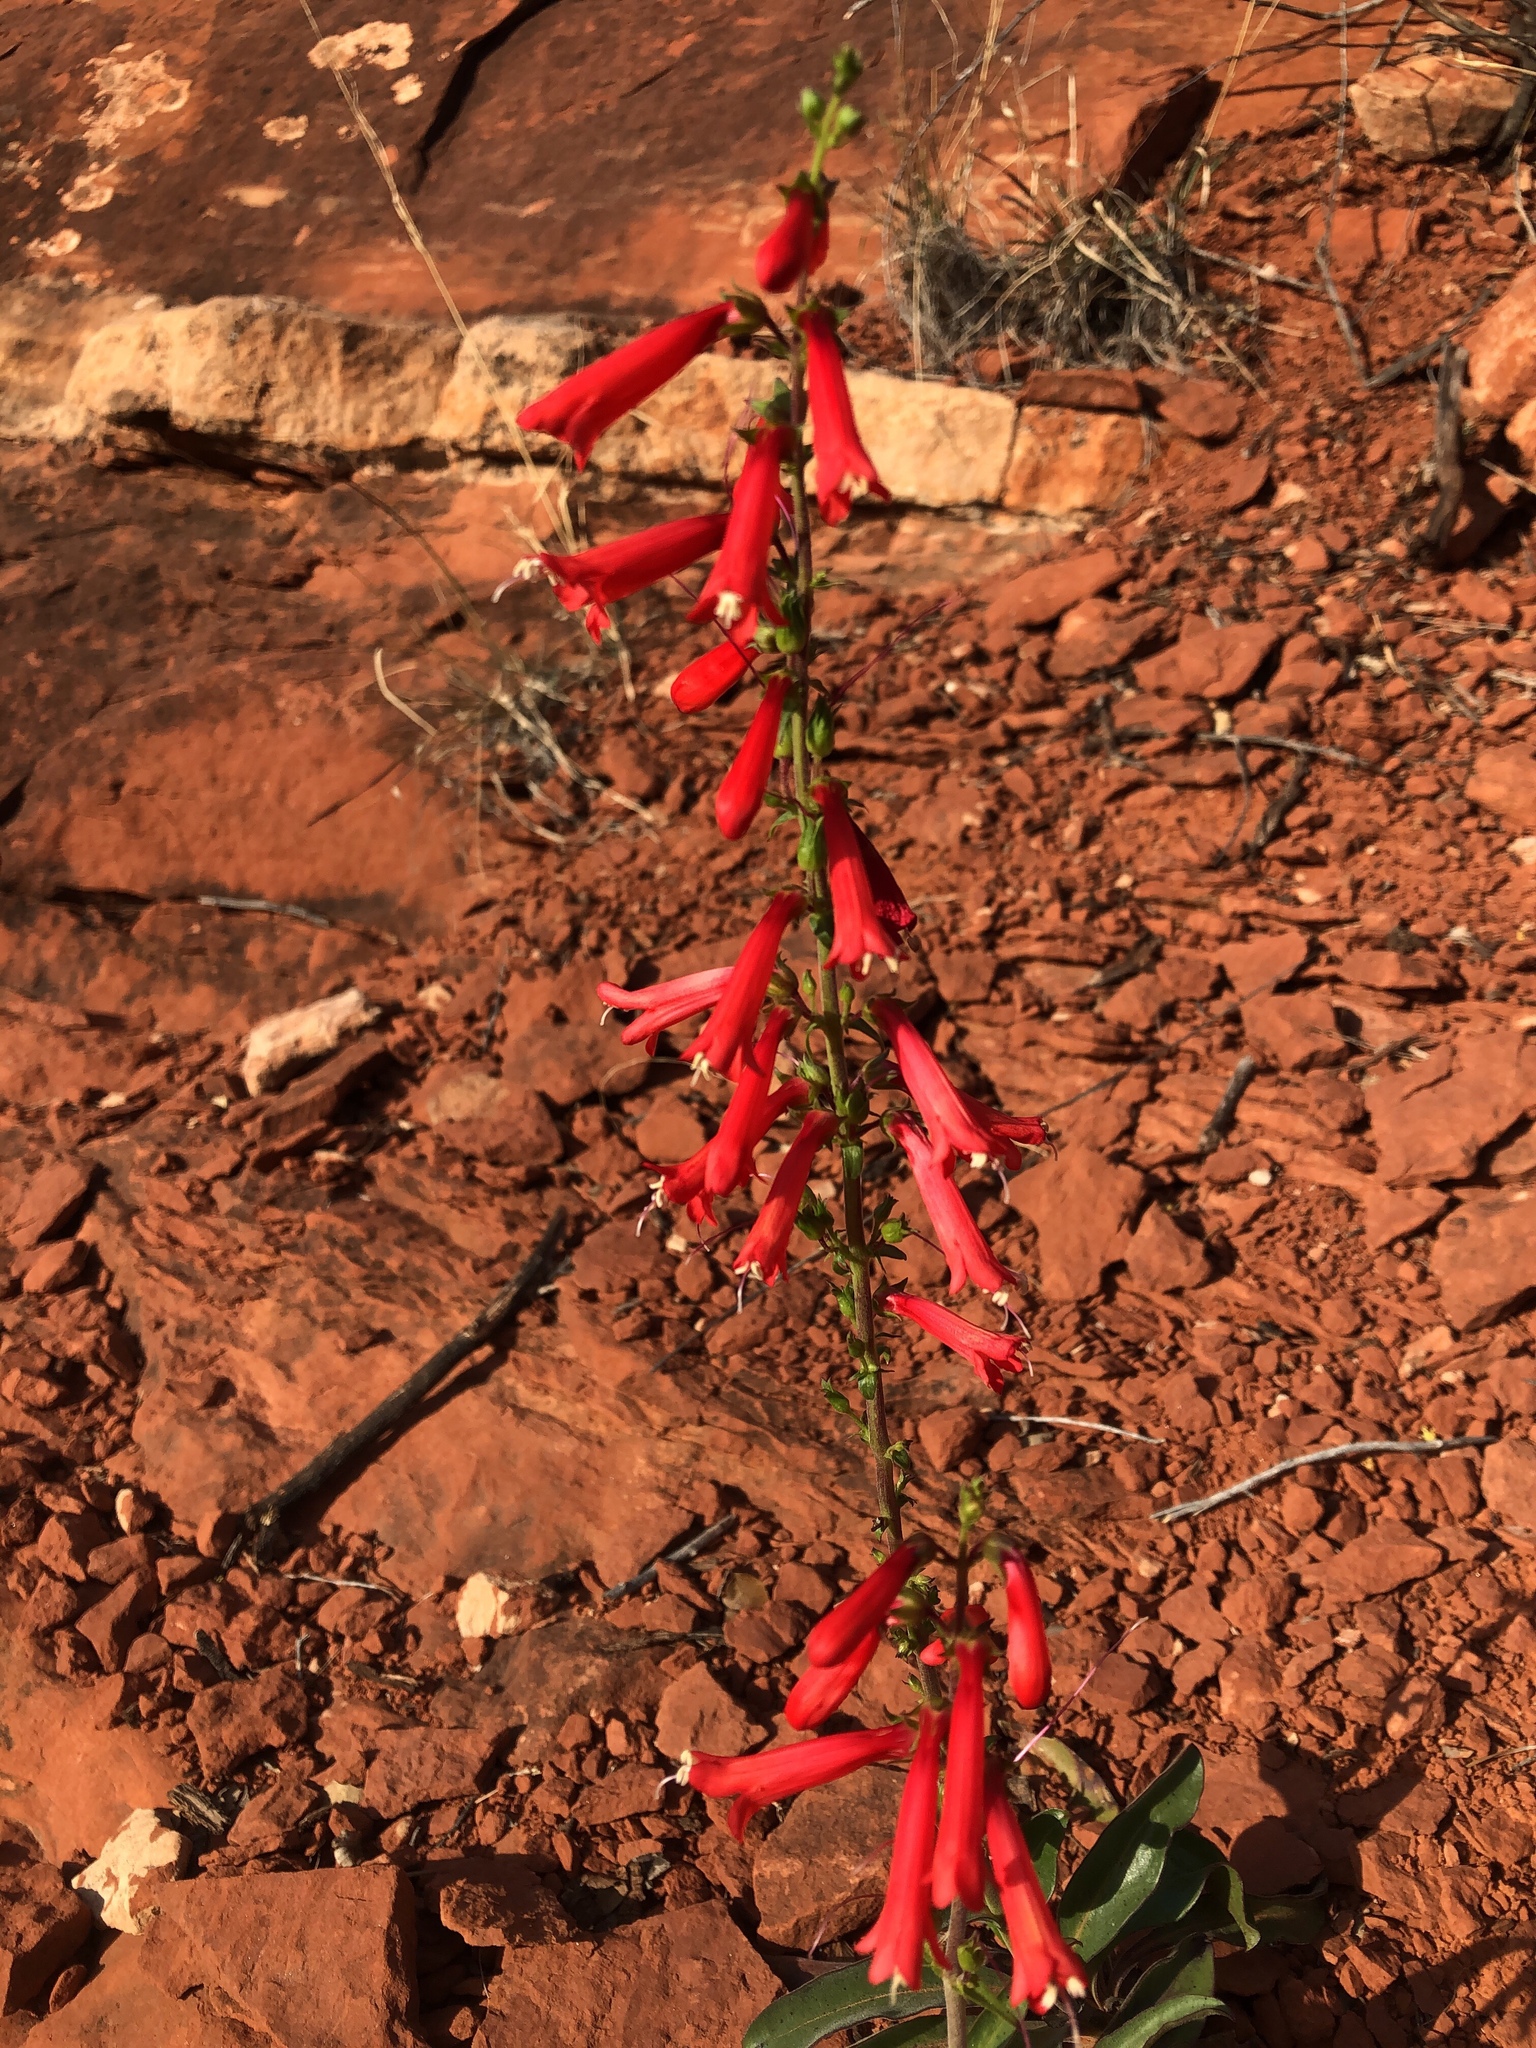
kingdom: Plantae
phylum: Tracheophyta
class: Magnoliopsida
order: Lamiales
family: Plantaginaceae
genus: Penstemon
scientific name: Penstemon eatonii
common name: Eaton's penstemon
